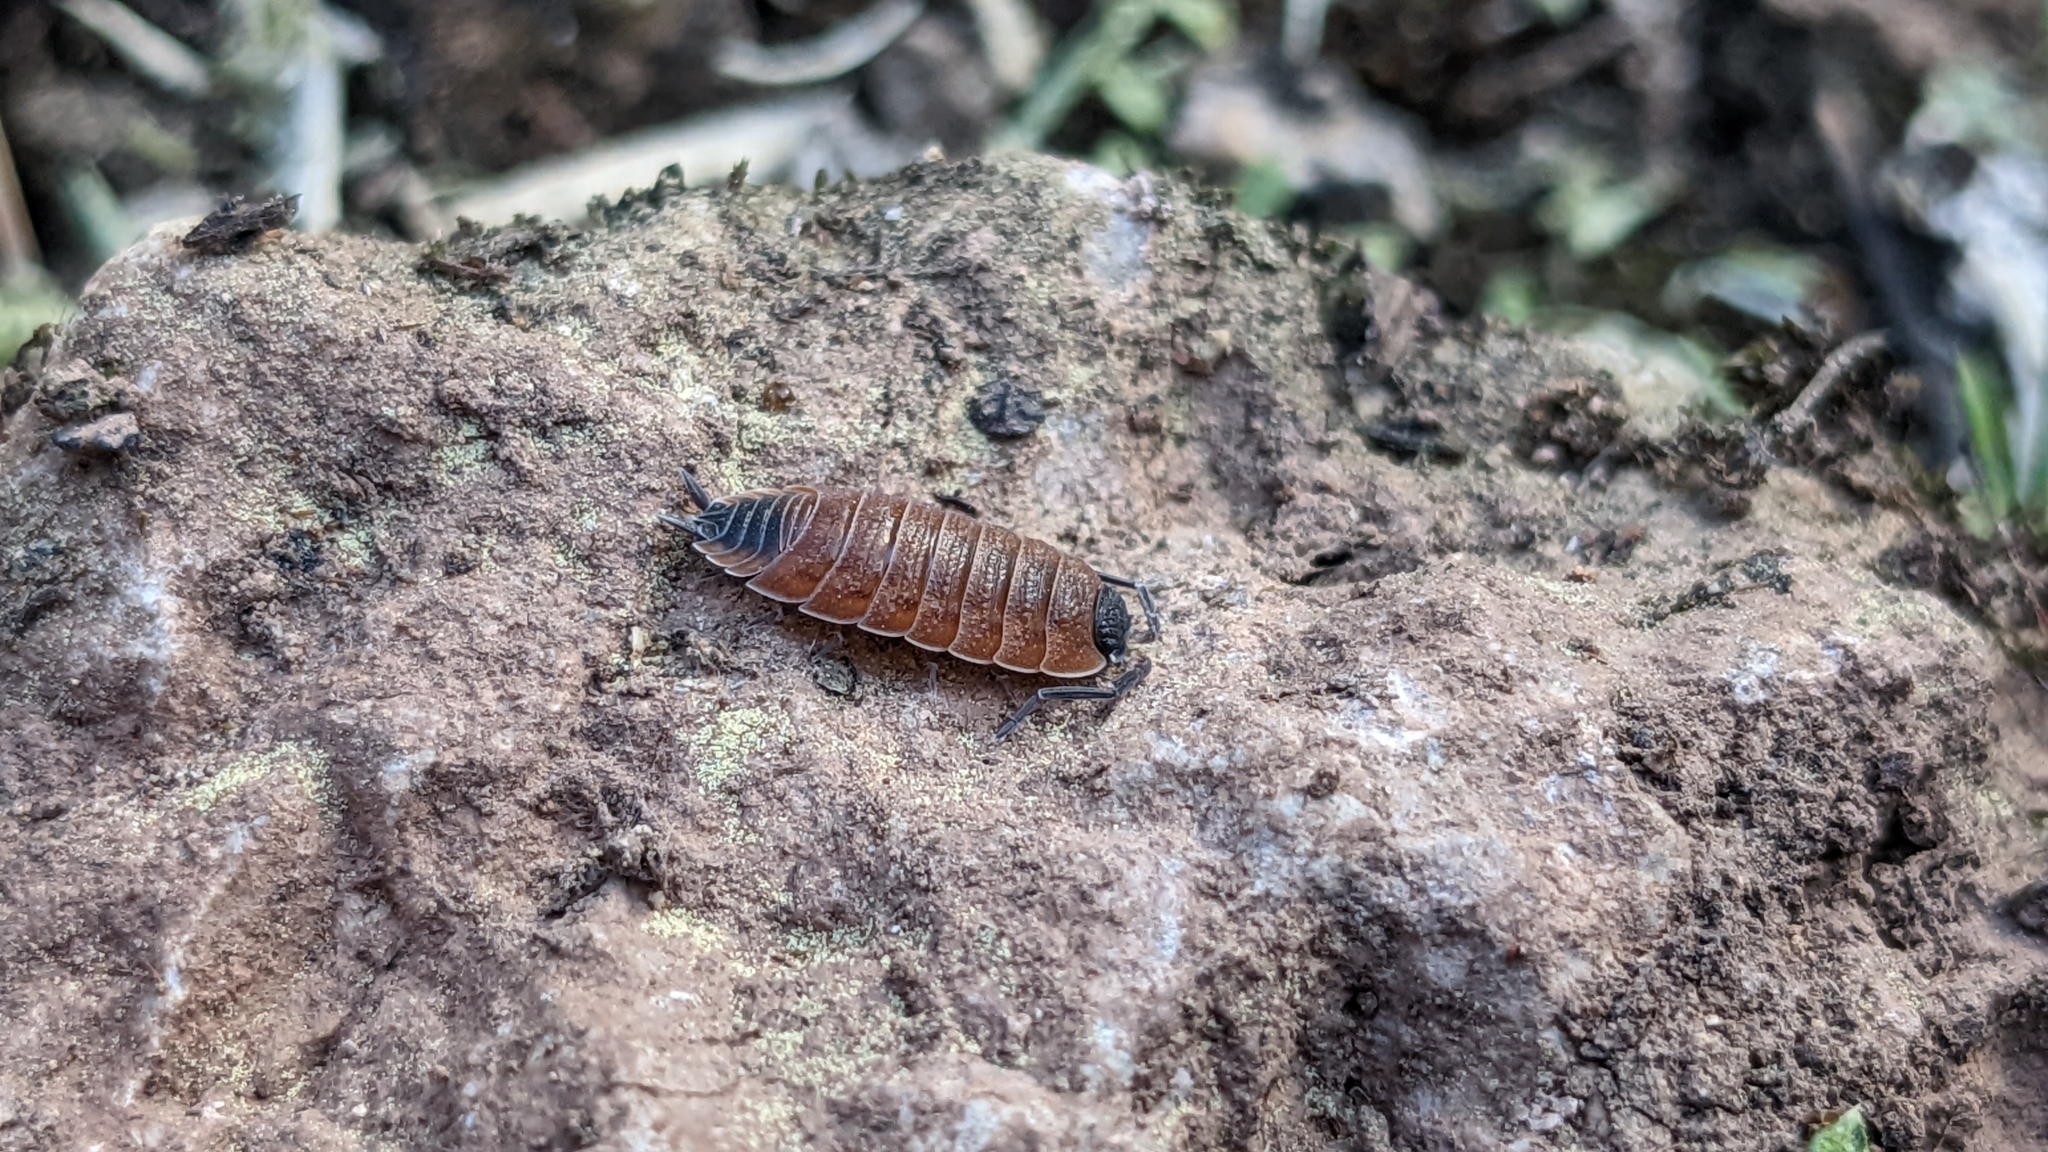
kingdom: Animalia
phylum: Arthropoda
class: Malacostraca
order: Isopoda
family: Porcellionidae
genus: Porcellio
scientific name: Porcellio silvestrii
